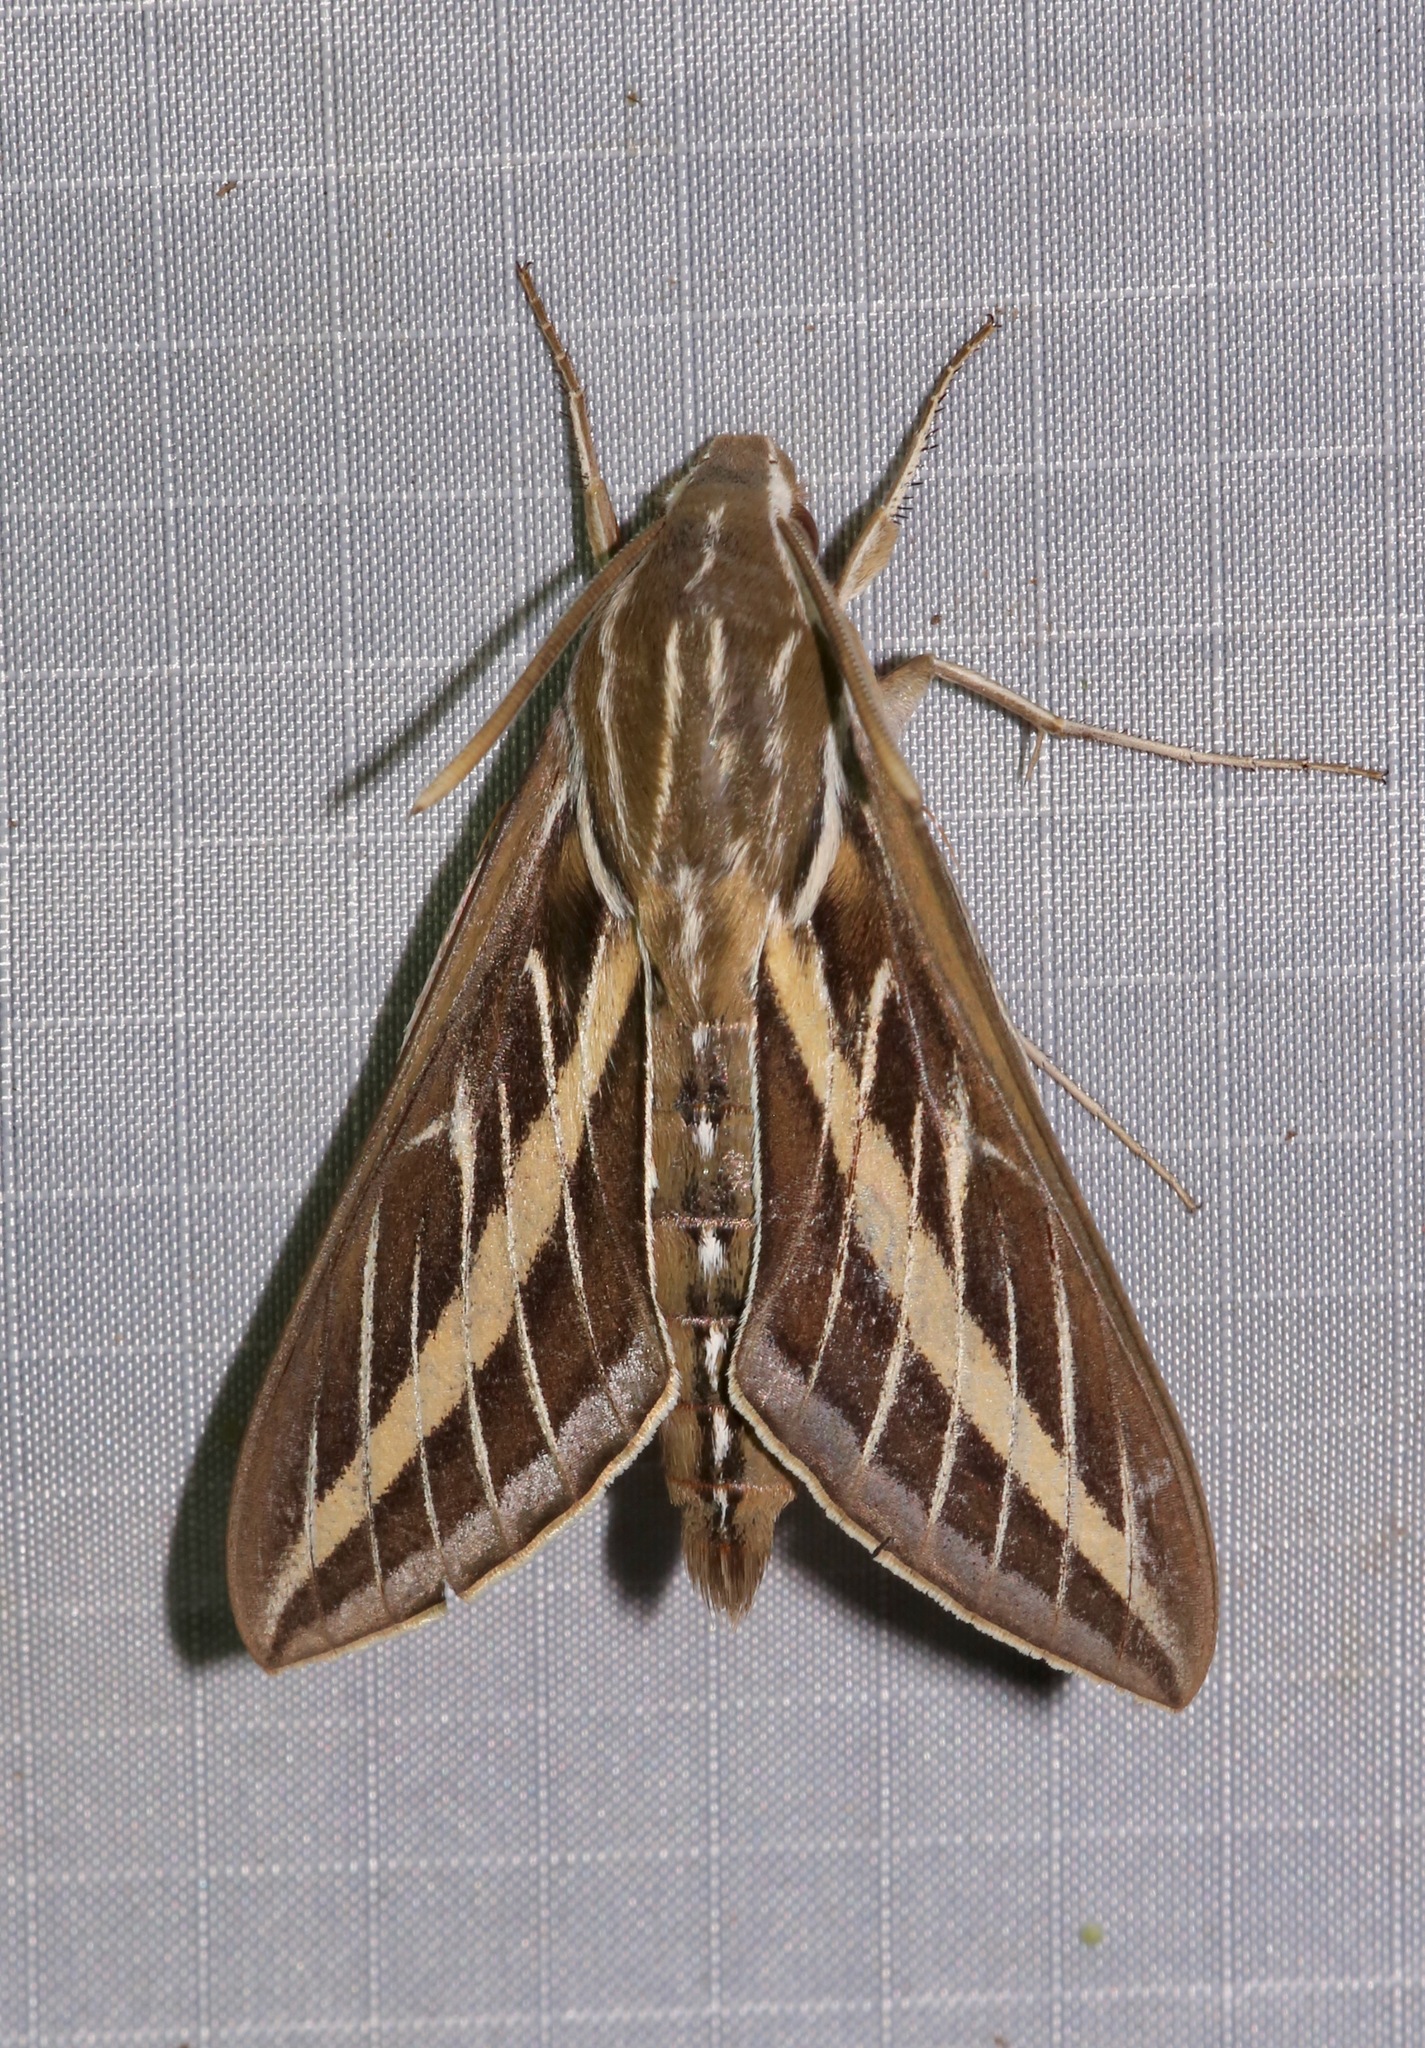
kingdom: Animalia
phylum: Arthropoda
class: Insecta
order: Lepidoptera
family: Sphingidae
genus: Hyles
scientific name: Hyles lineata
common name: White-lined sphinx
